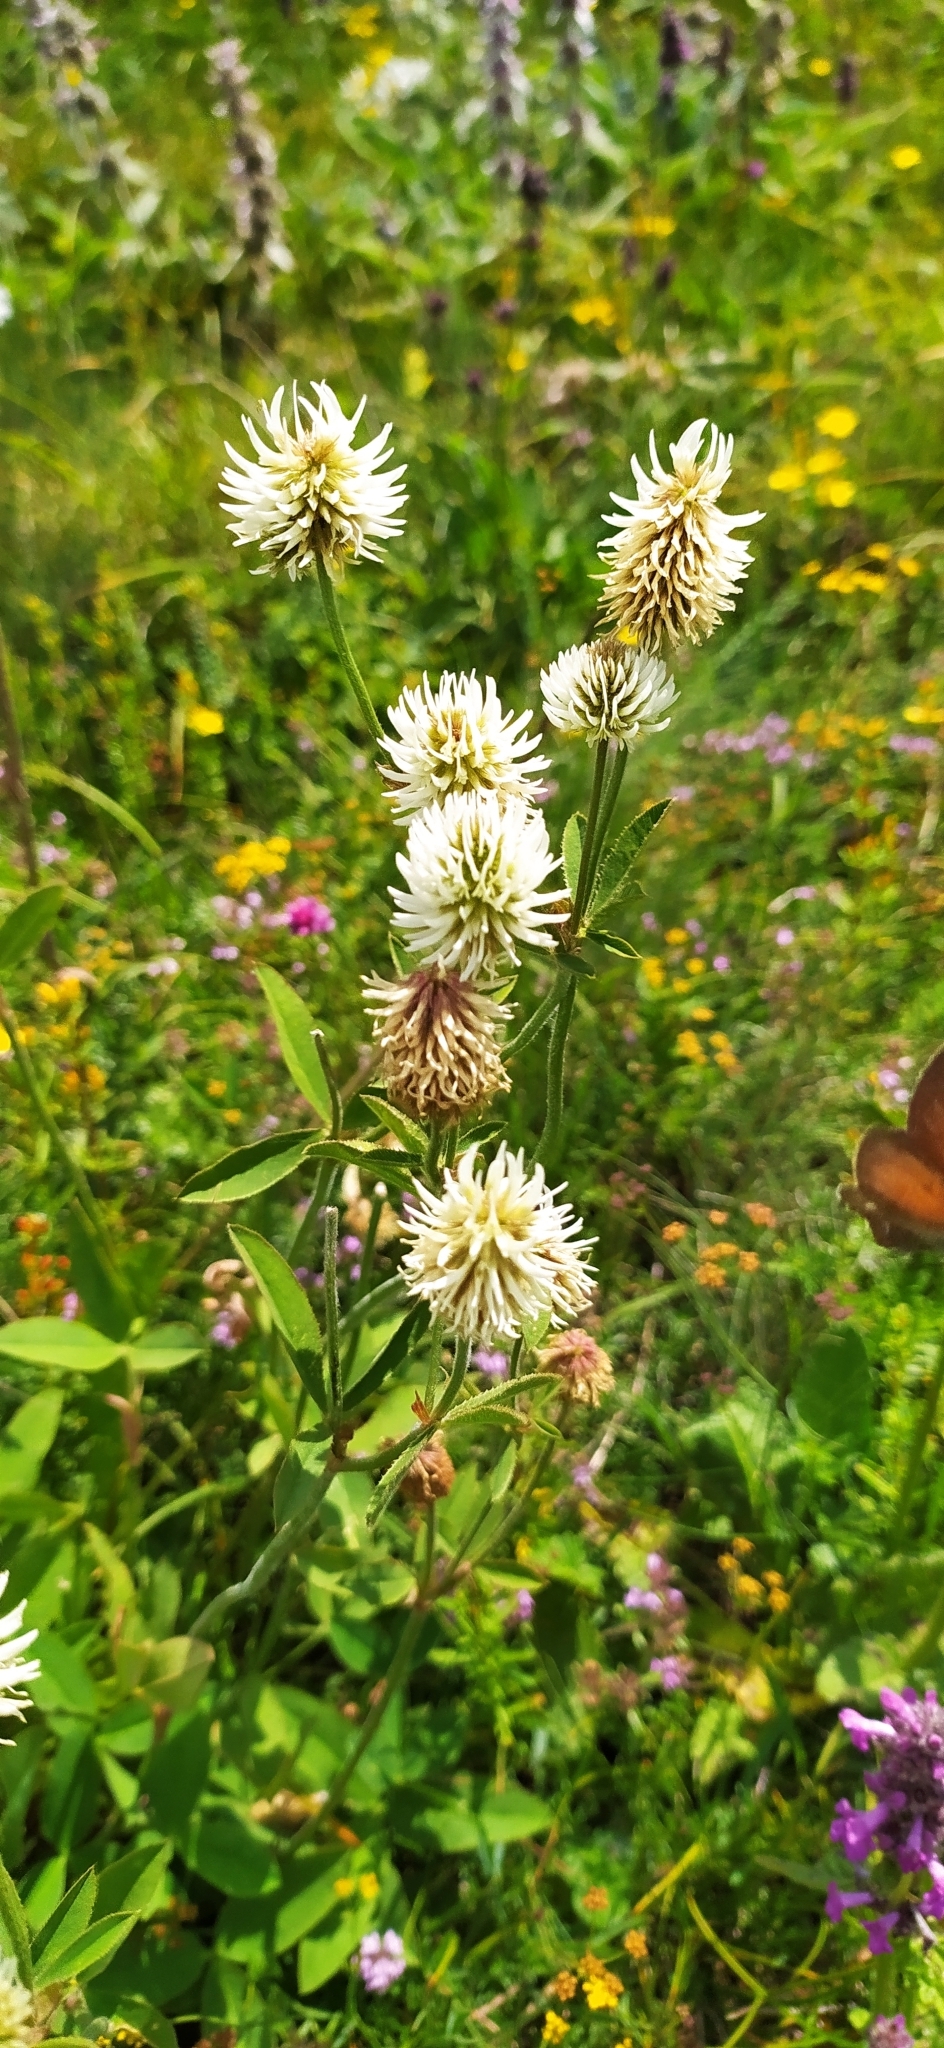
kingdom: Plantae
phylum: Tracheophyta
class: Magnoliopsida
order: Fabales
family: Fabaceae
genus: Trifolium
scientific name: Trifolium montanum
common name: Mountain clover
